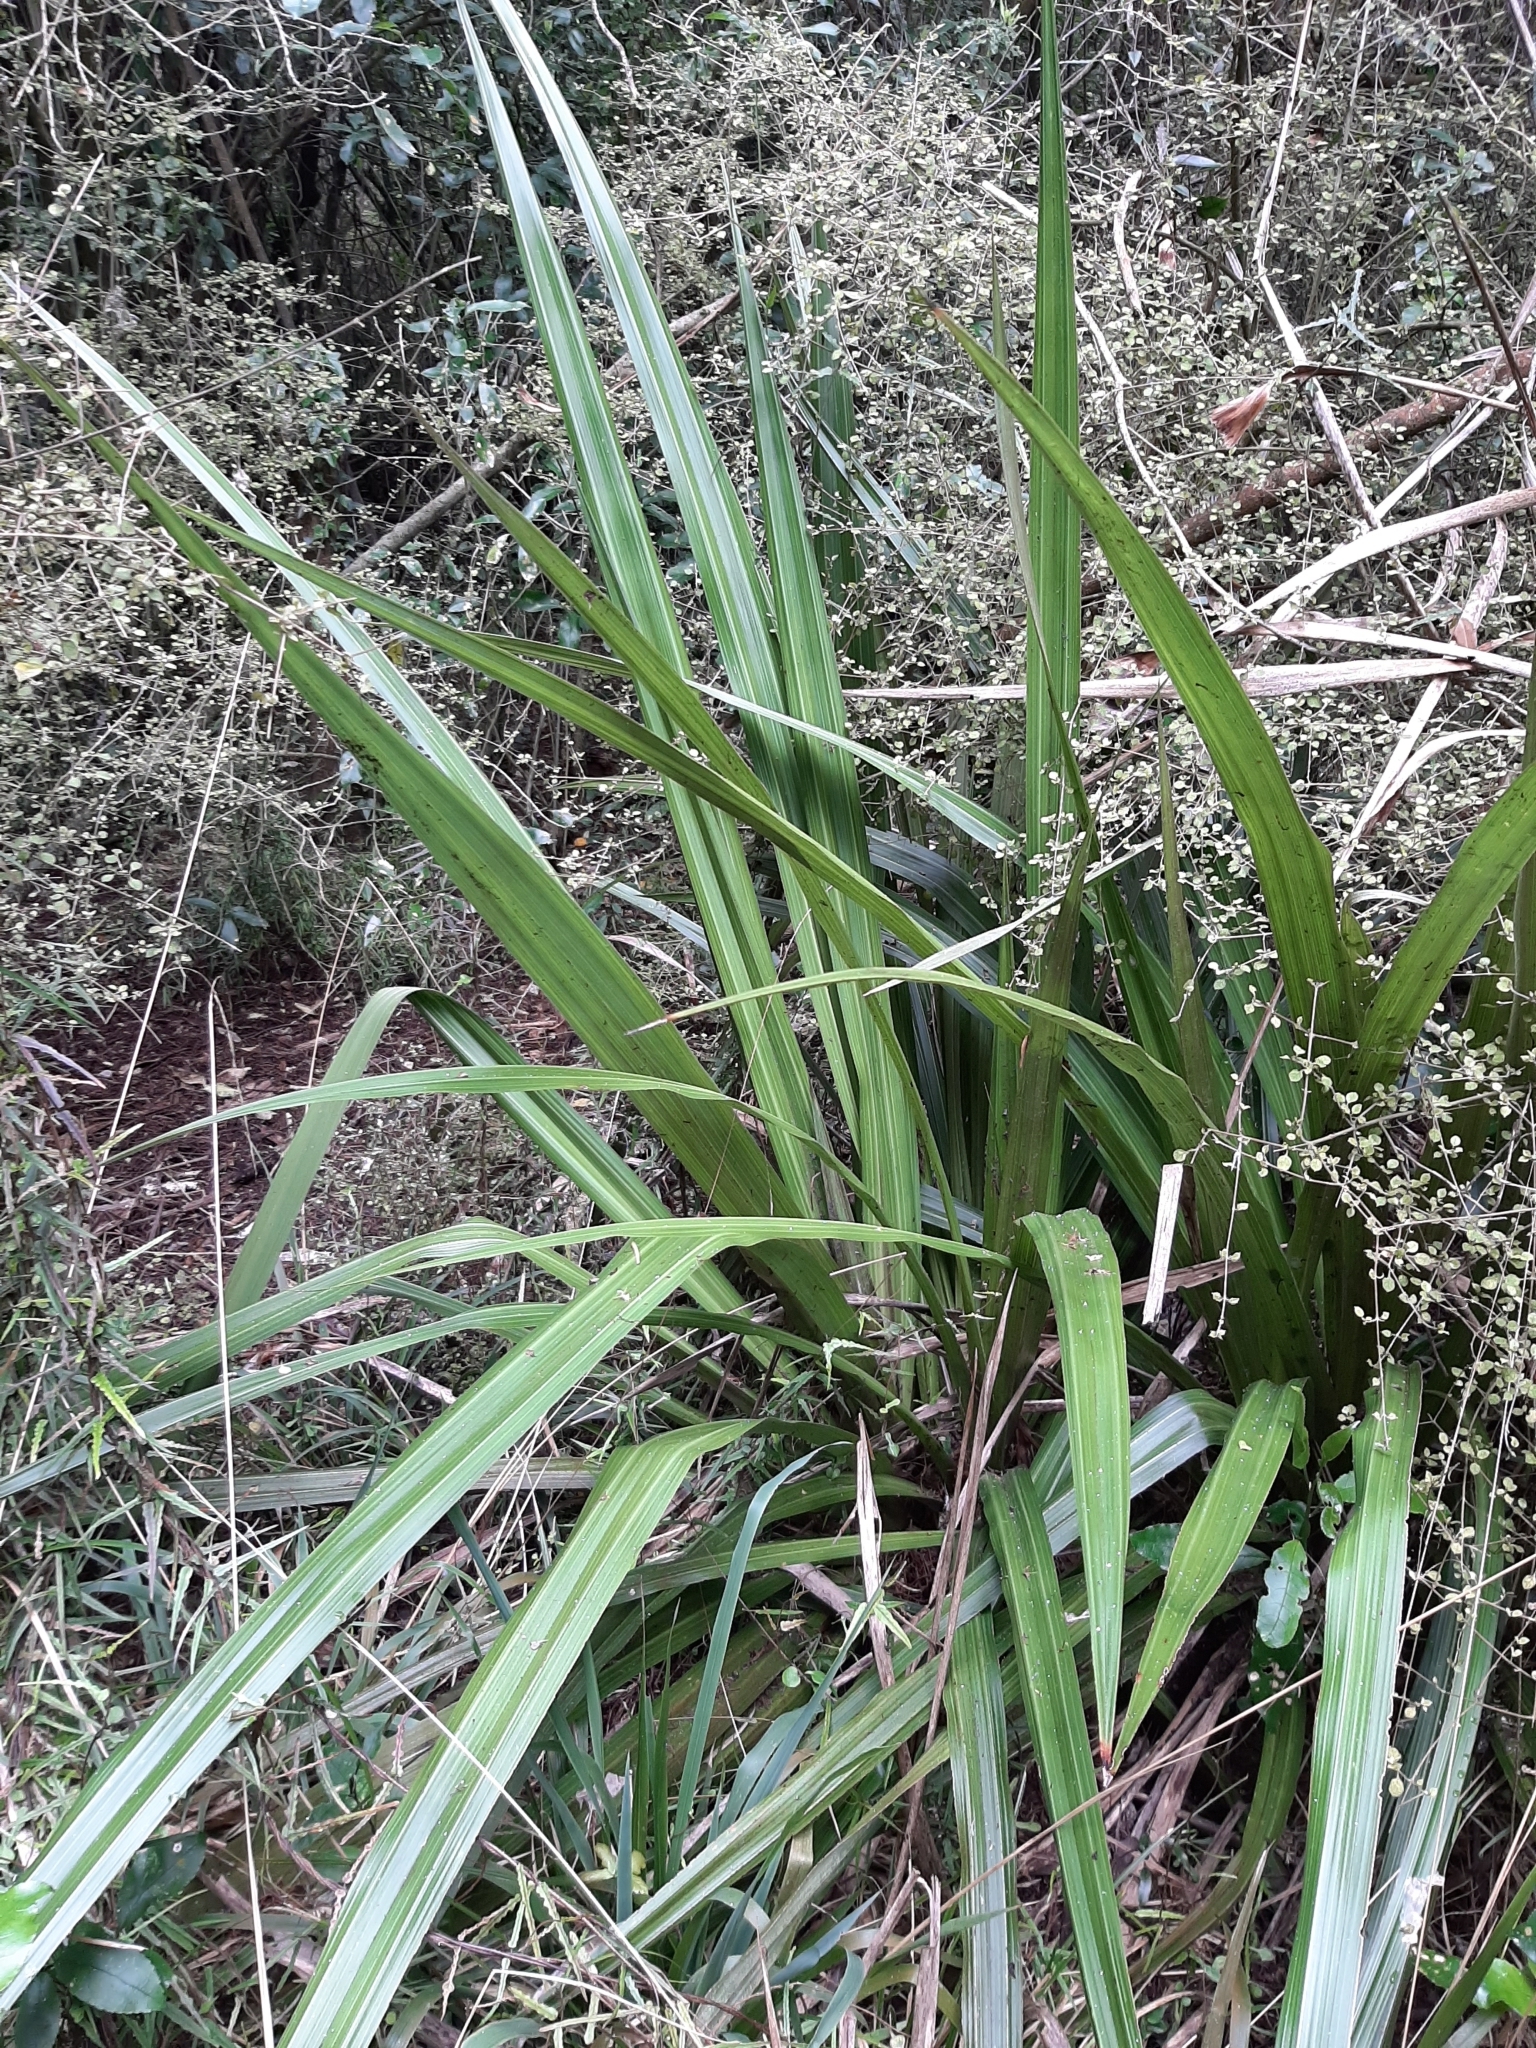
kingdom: Plantae
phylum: Tracheophyta
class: Liliopsida
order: Asparagales
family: Asteliaceae
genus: Astelia
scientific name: Astelia grandis
